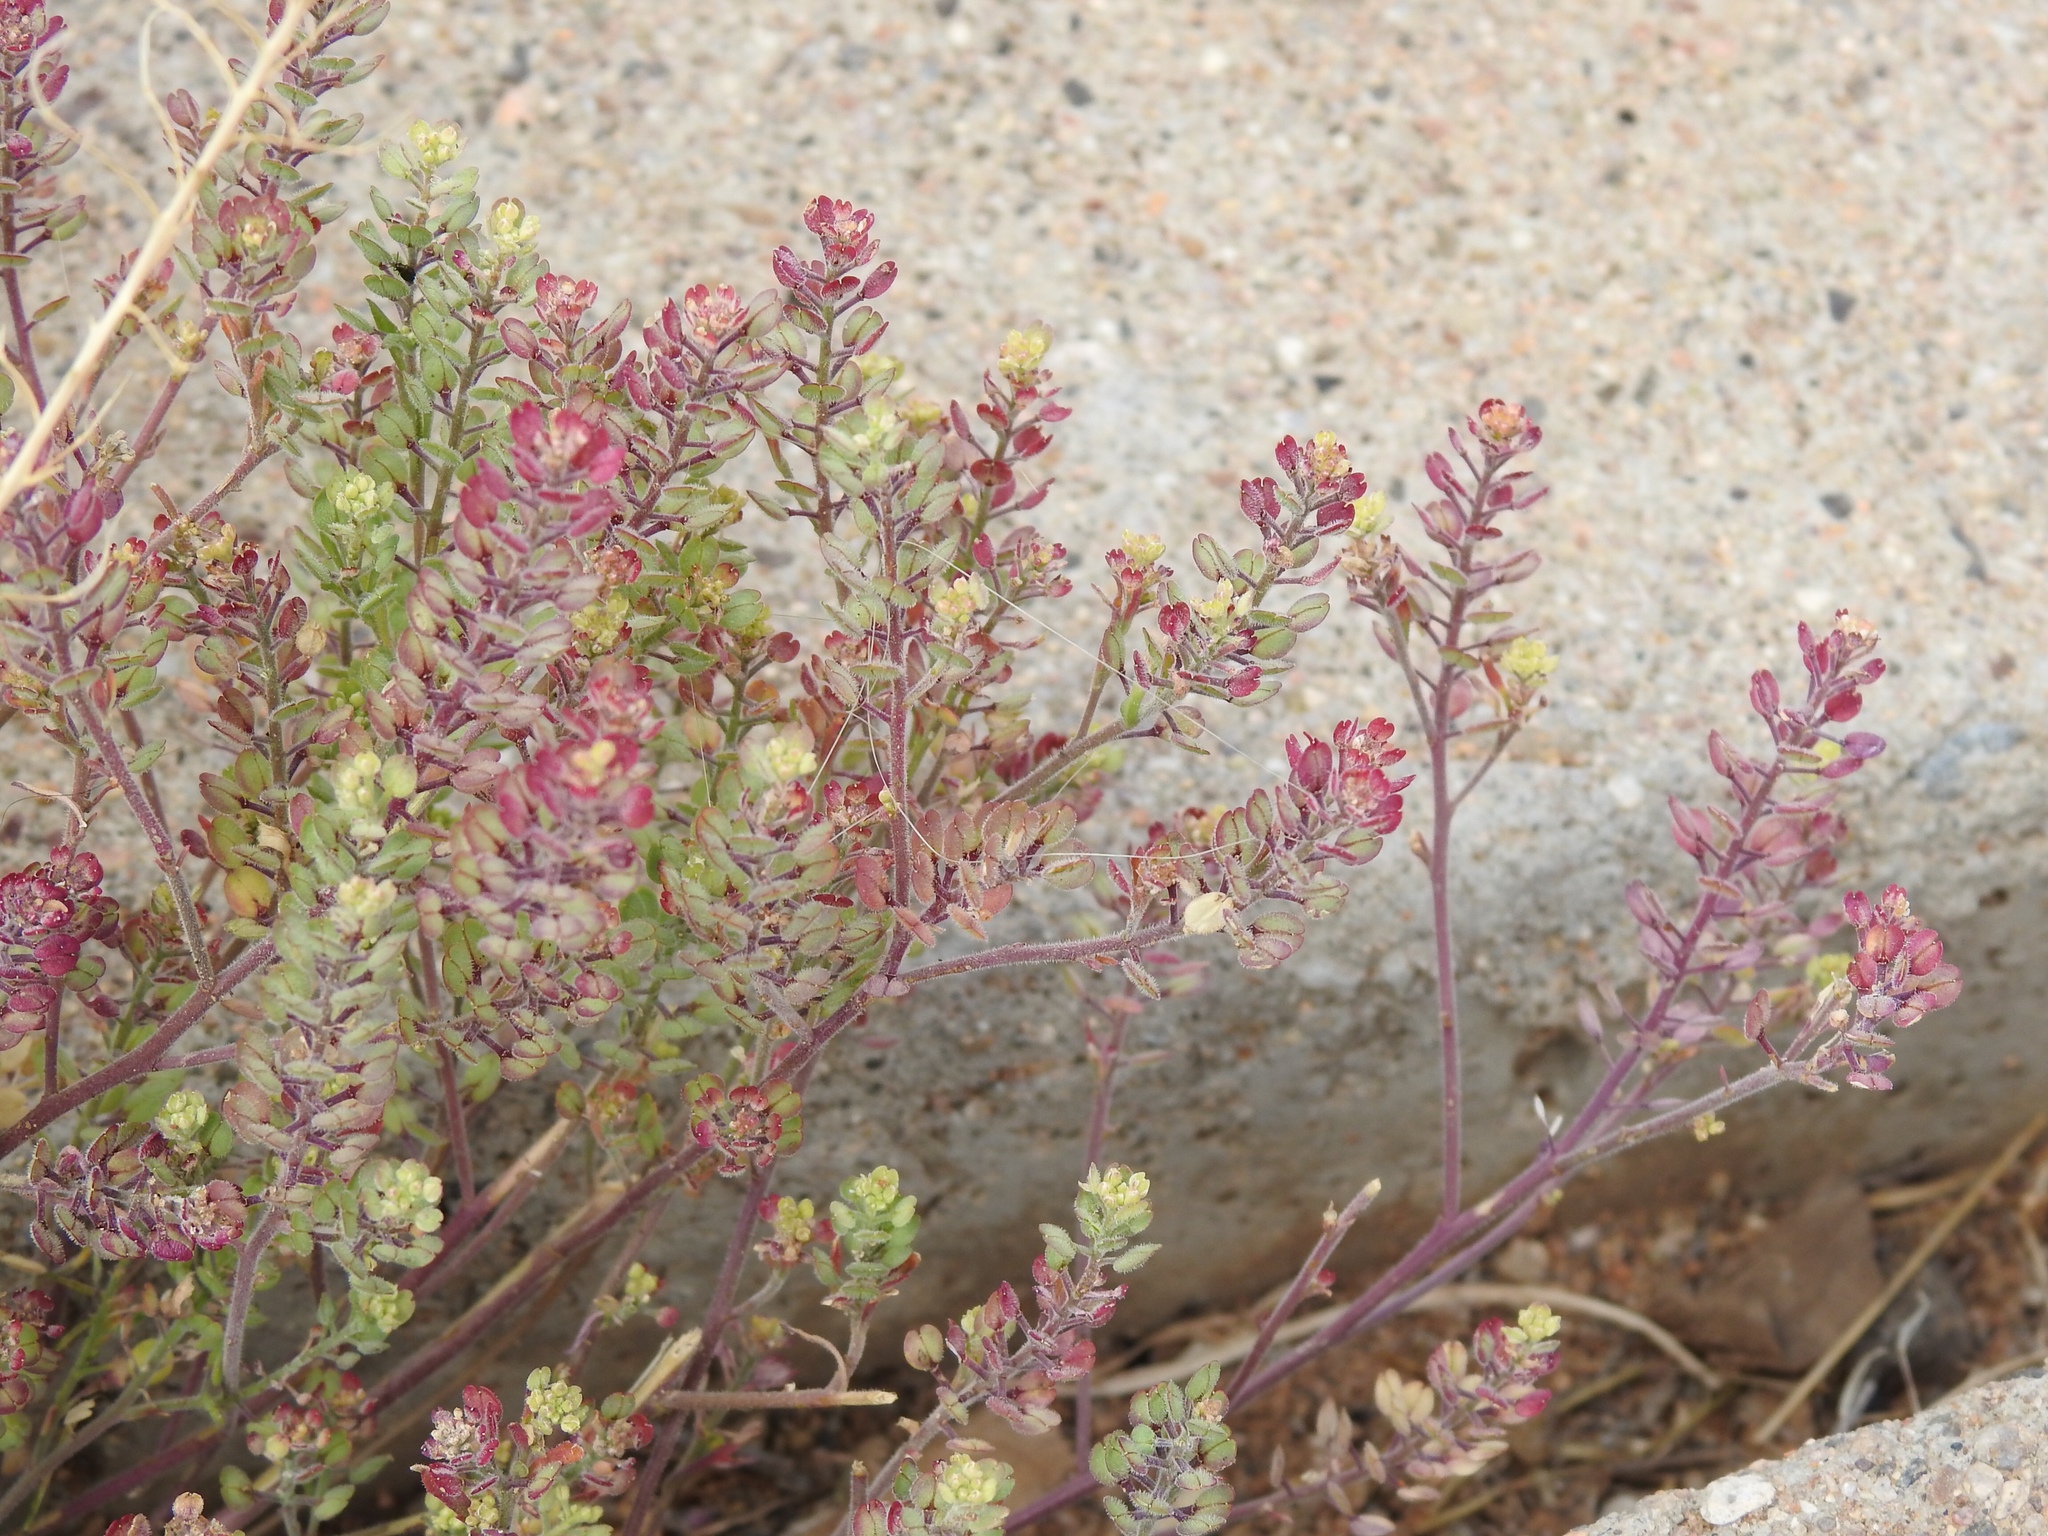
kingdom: Plantae
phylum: Tracheophyta
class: Magnoliopsida
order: Brassicales
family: Brassicaceae
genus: Lepidium
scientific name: Lepidium lasiocarpum
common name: Hairy-pod pepperwort
